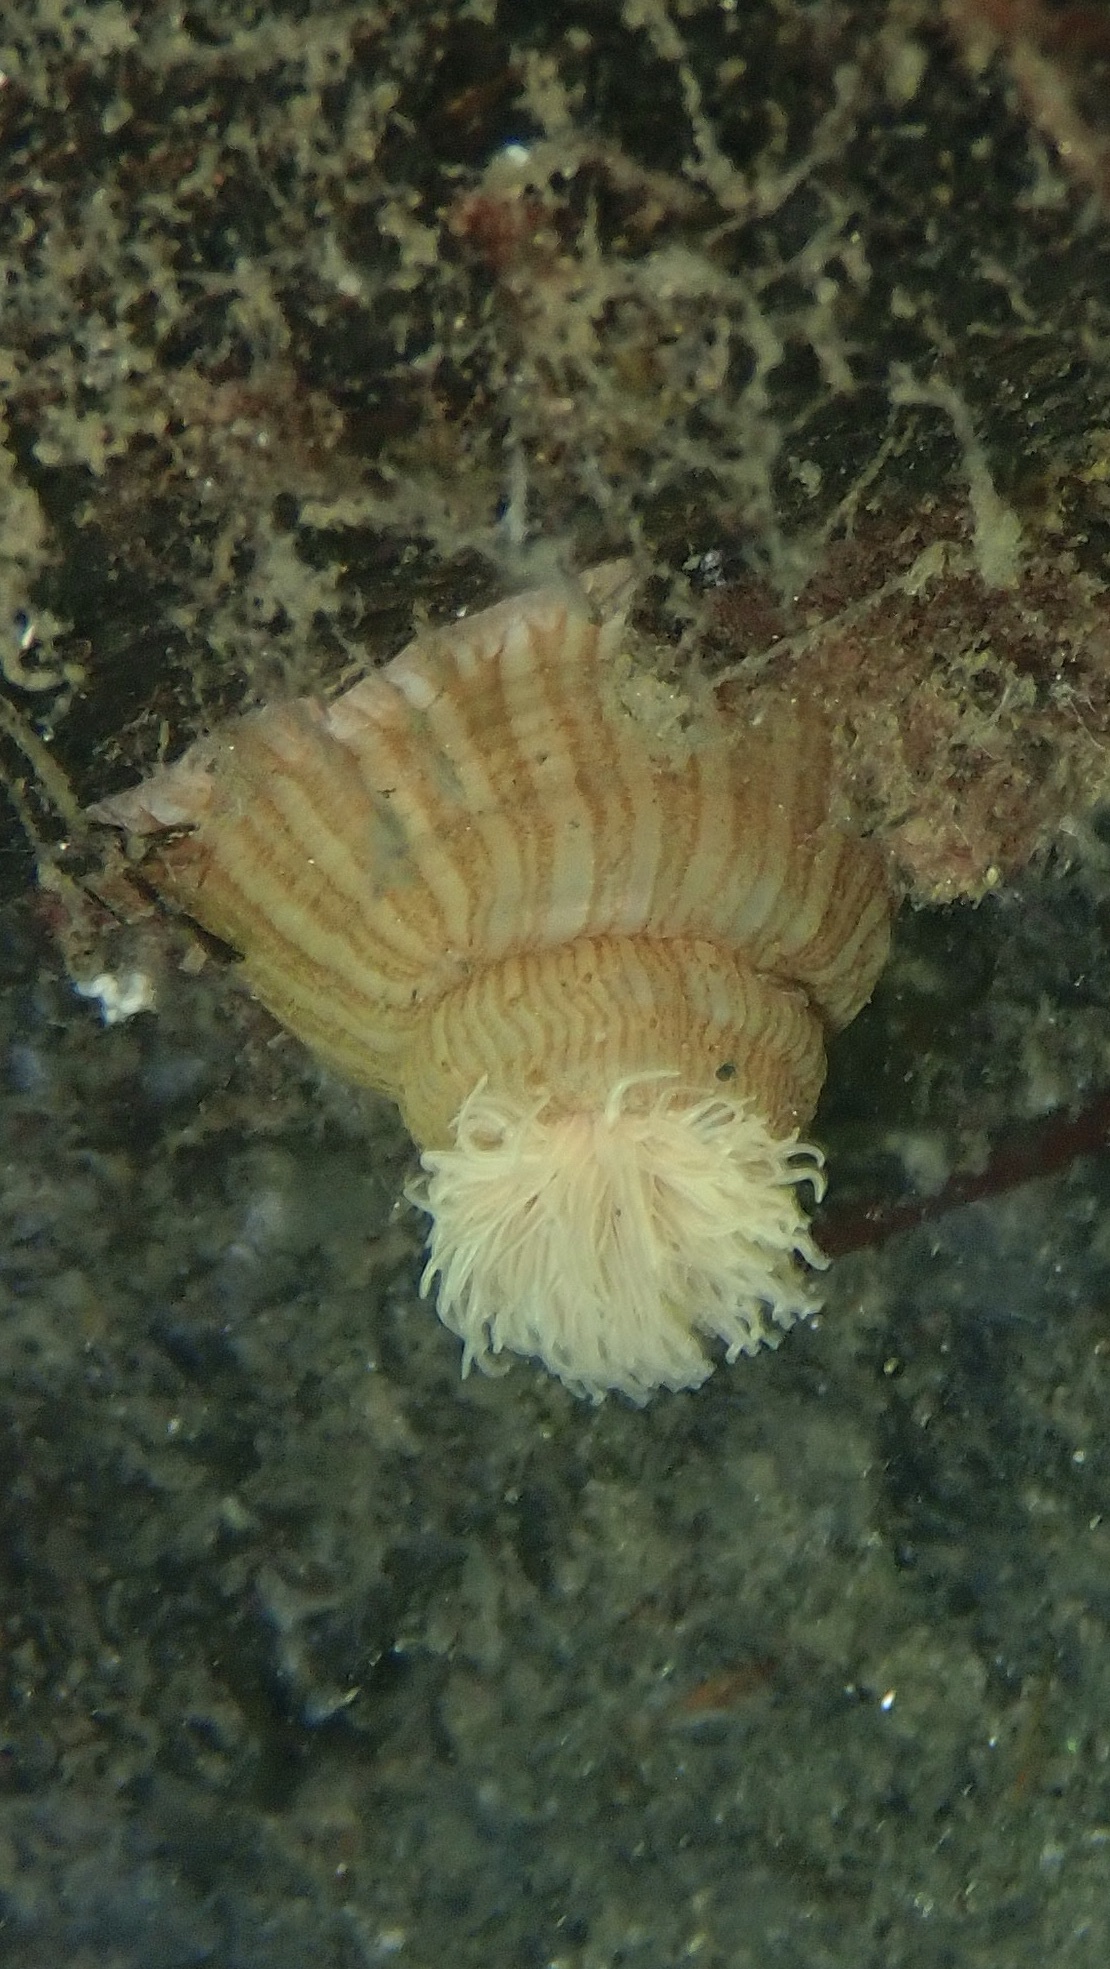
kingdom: Animalia
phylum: Cnidaria
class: Anthozoa
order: Actiniaria
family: Sagartiidae
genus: Sagartia
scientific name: Sagartia undata
